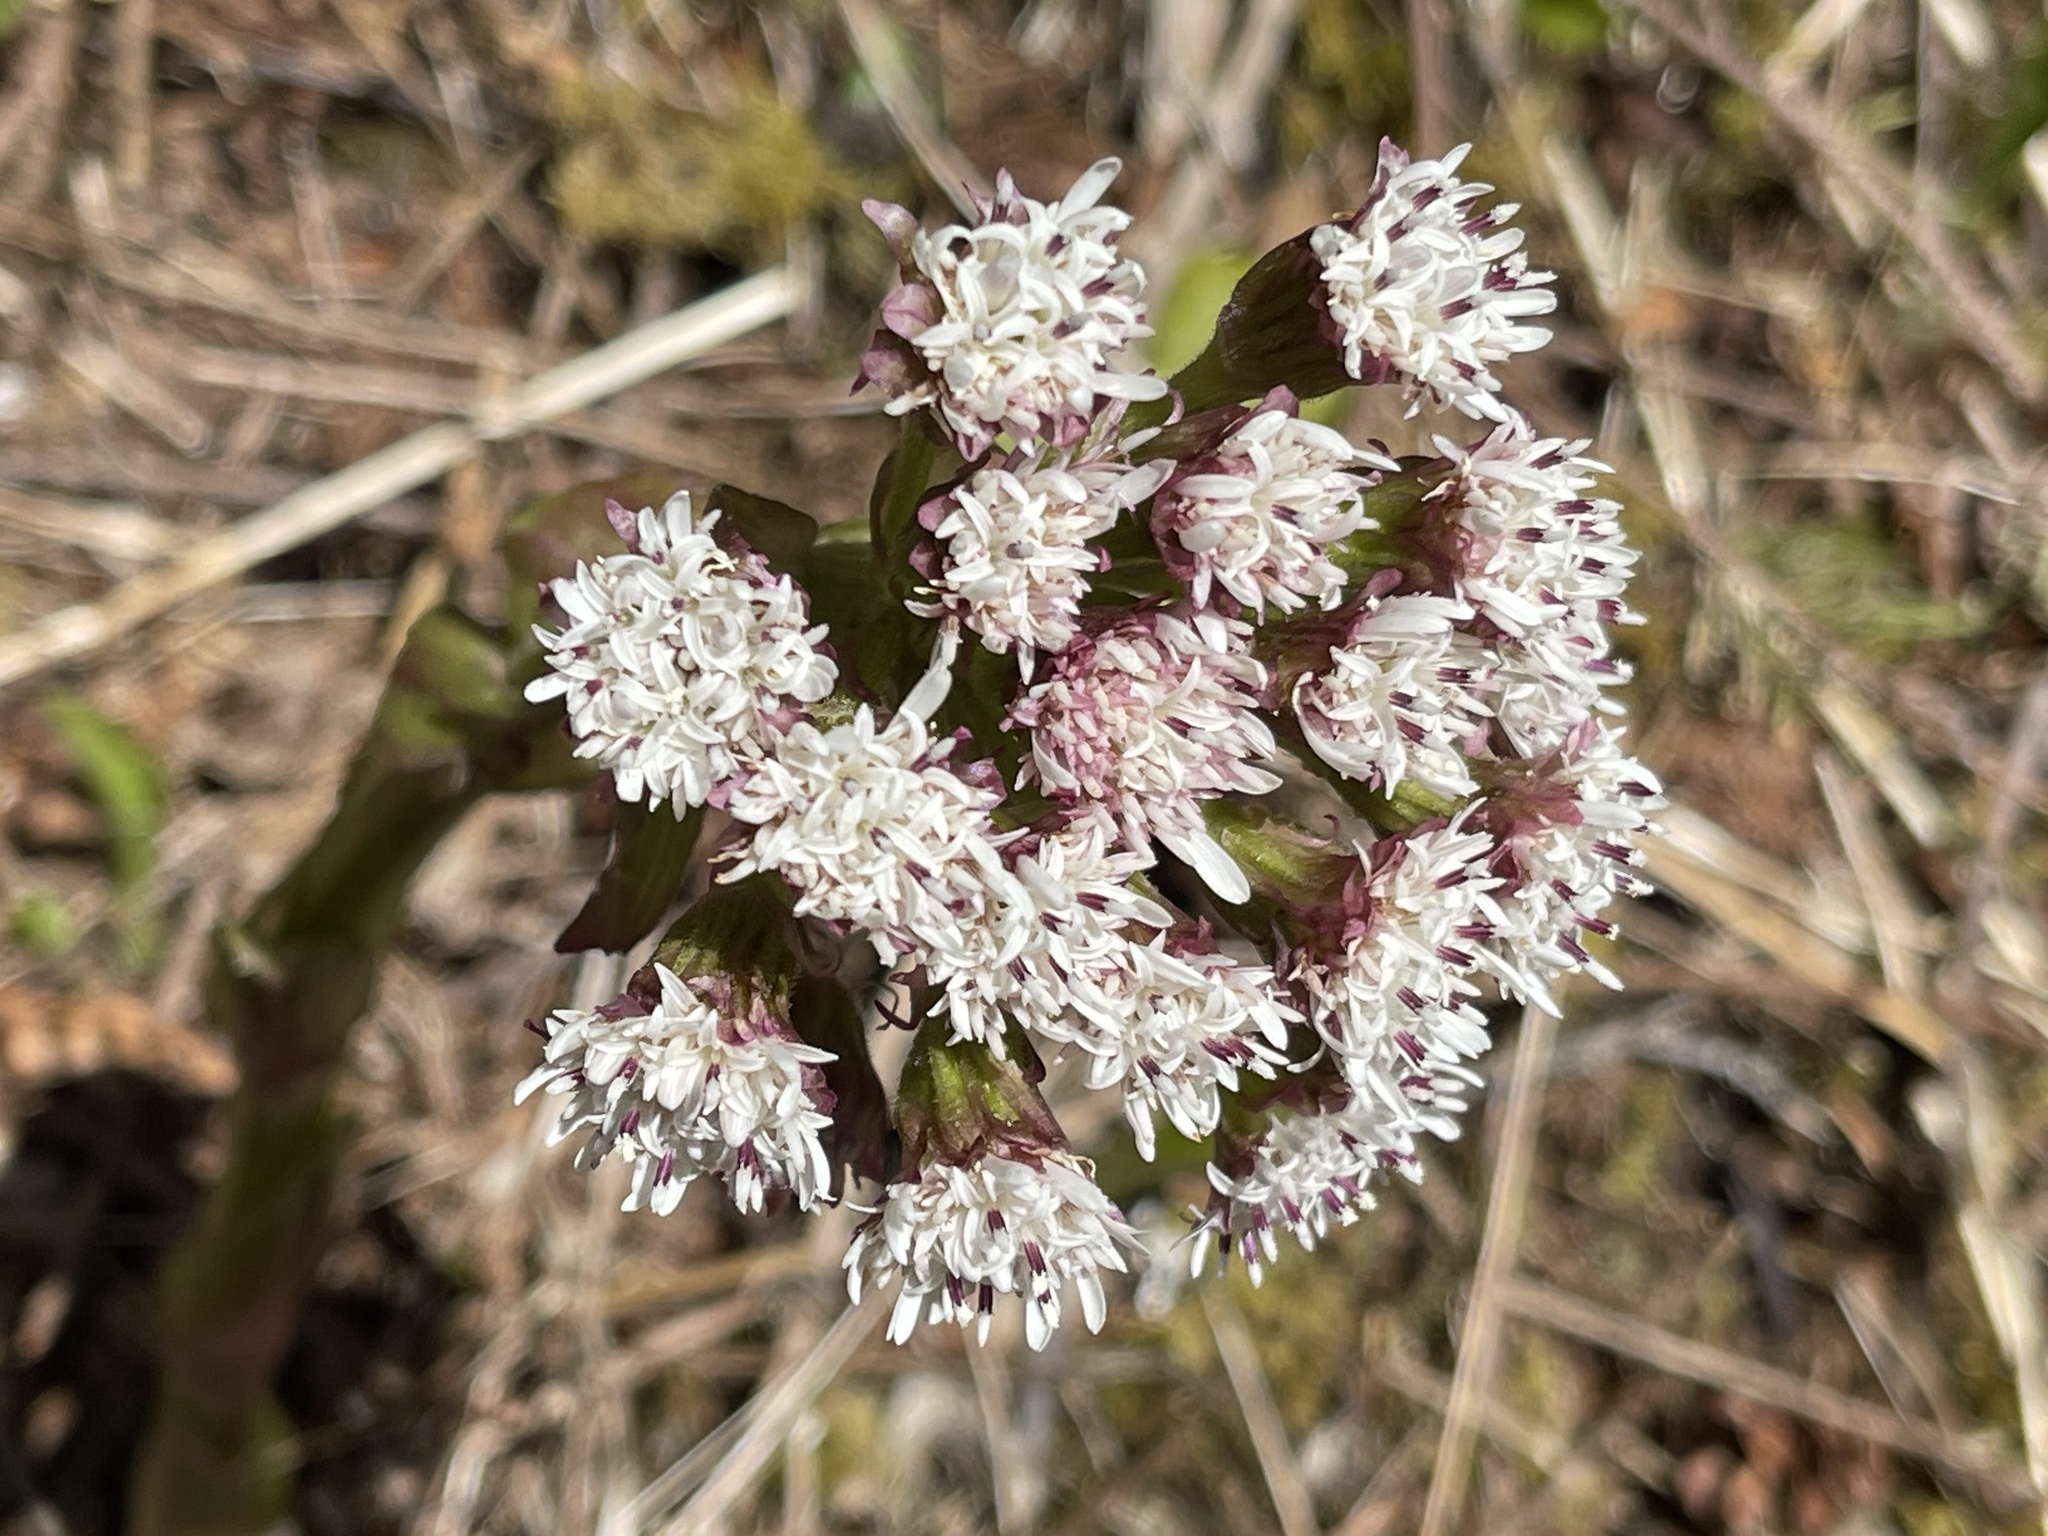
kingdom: Plantae
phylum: Tracheophyta
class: Magnoliopsida
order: Asterales
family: Asteraceae
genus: Petasites
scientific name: Petasites frigidus
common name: Arctic butterbur
